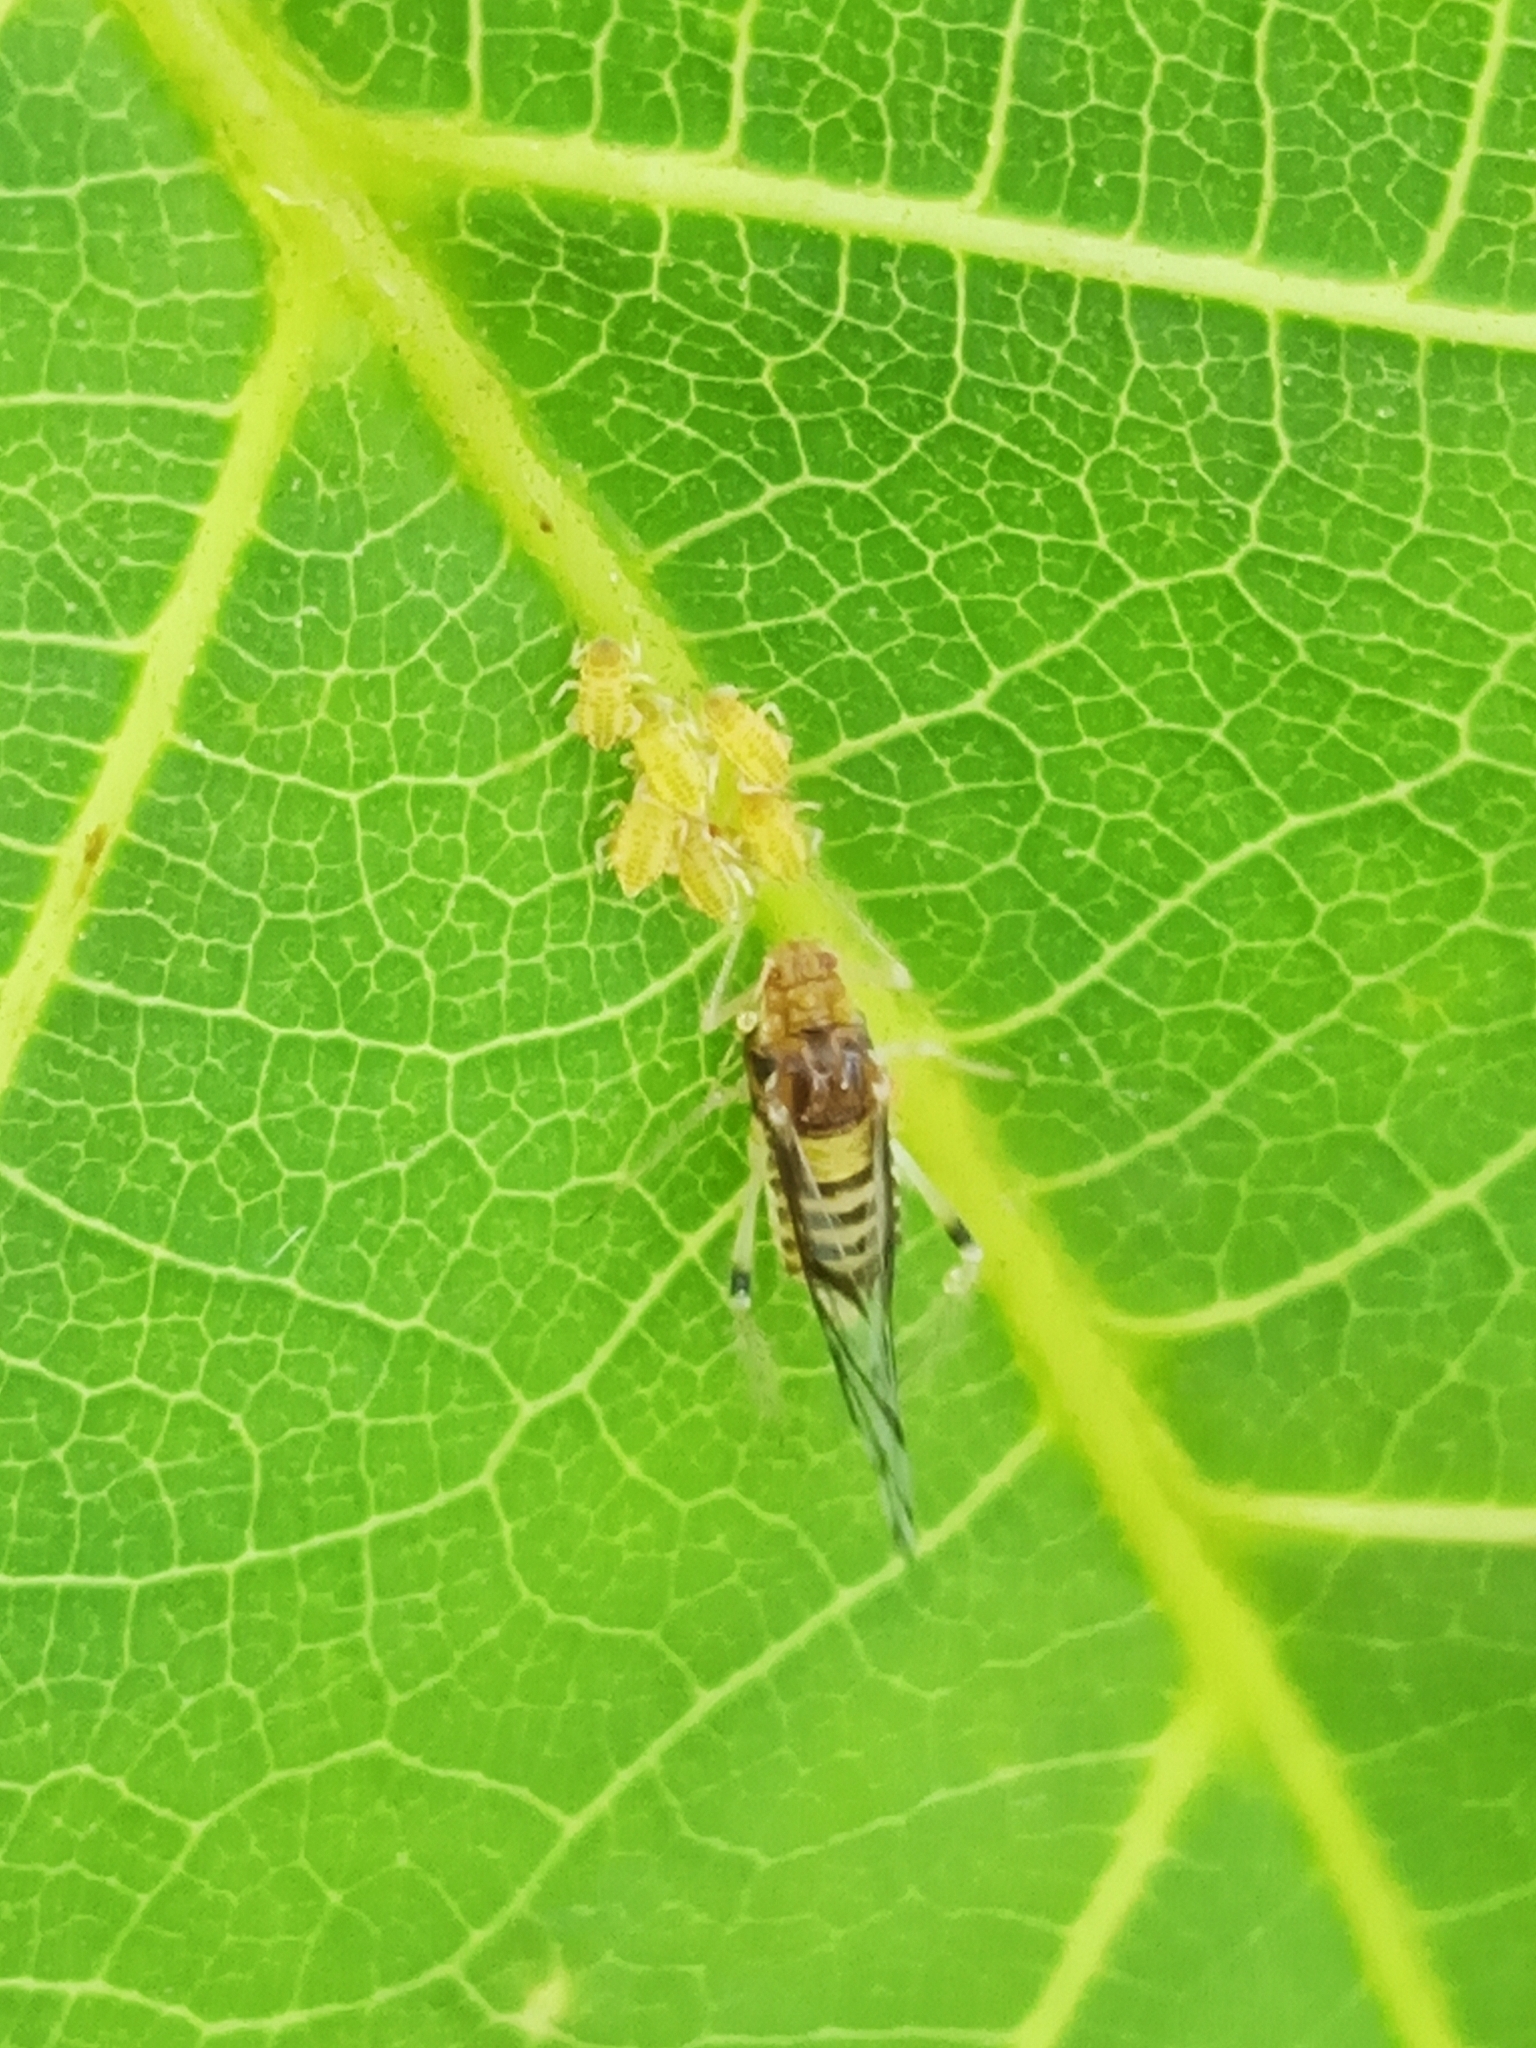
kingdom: Animalia
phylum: Arthropoda
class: Insecta
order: Hemiptera
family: Aphididae
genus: Panaphis
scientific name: Panaphis juglandis
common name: Large walnut aphid
